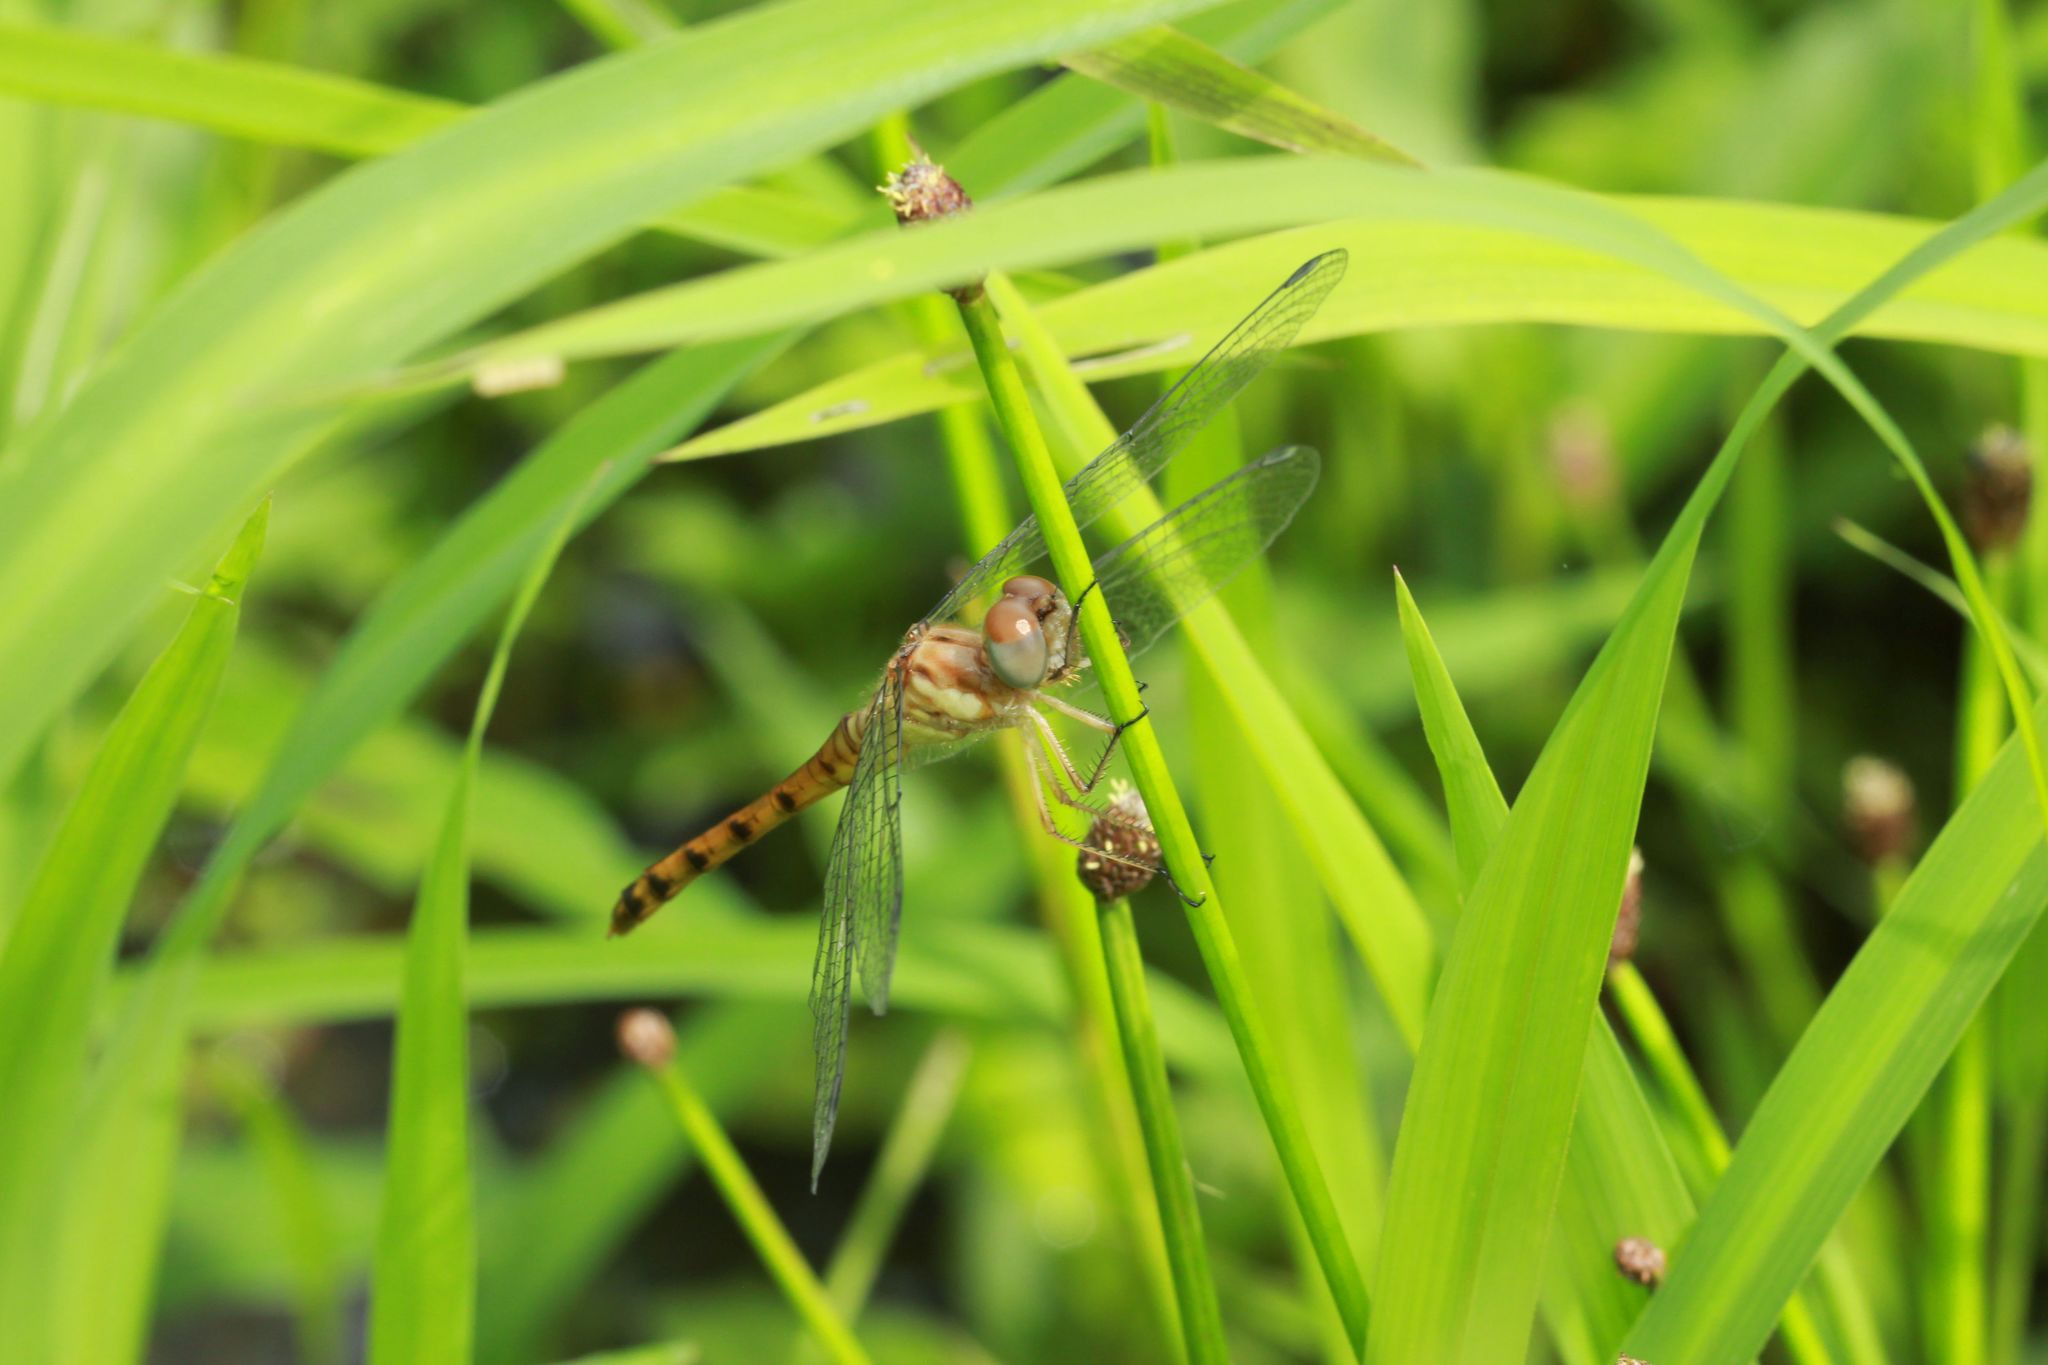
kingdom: Animalia
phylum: Arthropoda
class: Insecta
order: Odonata
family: Libellulidae
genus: Sympetrum
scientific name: Sympetrum ambiguum
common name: Blue-faced meadowhawk
